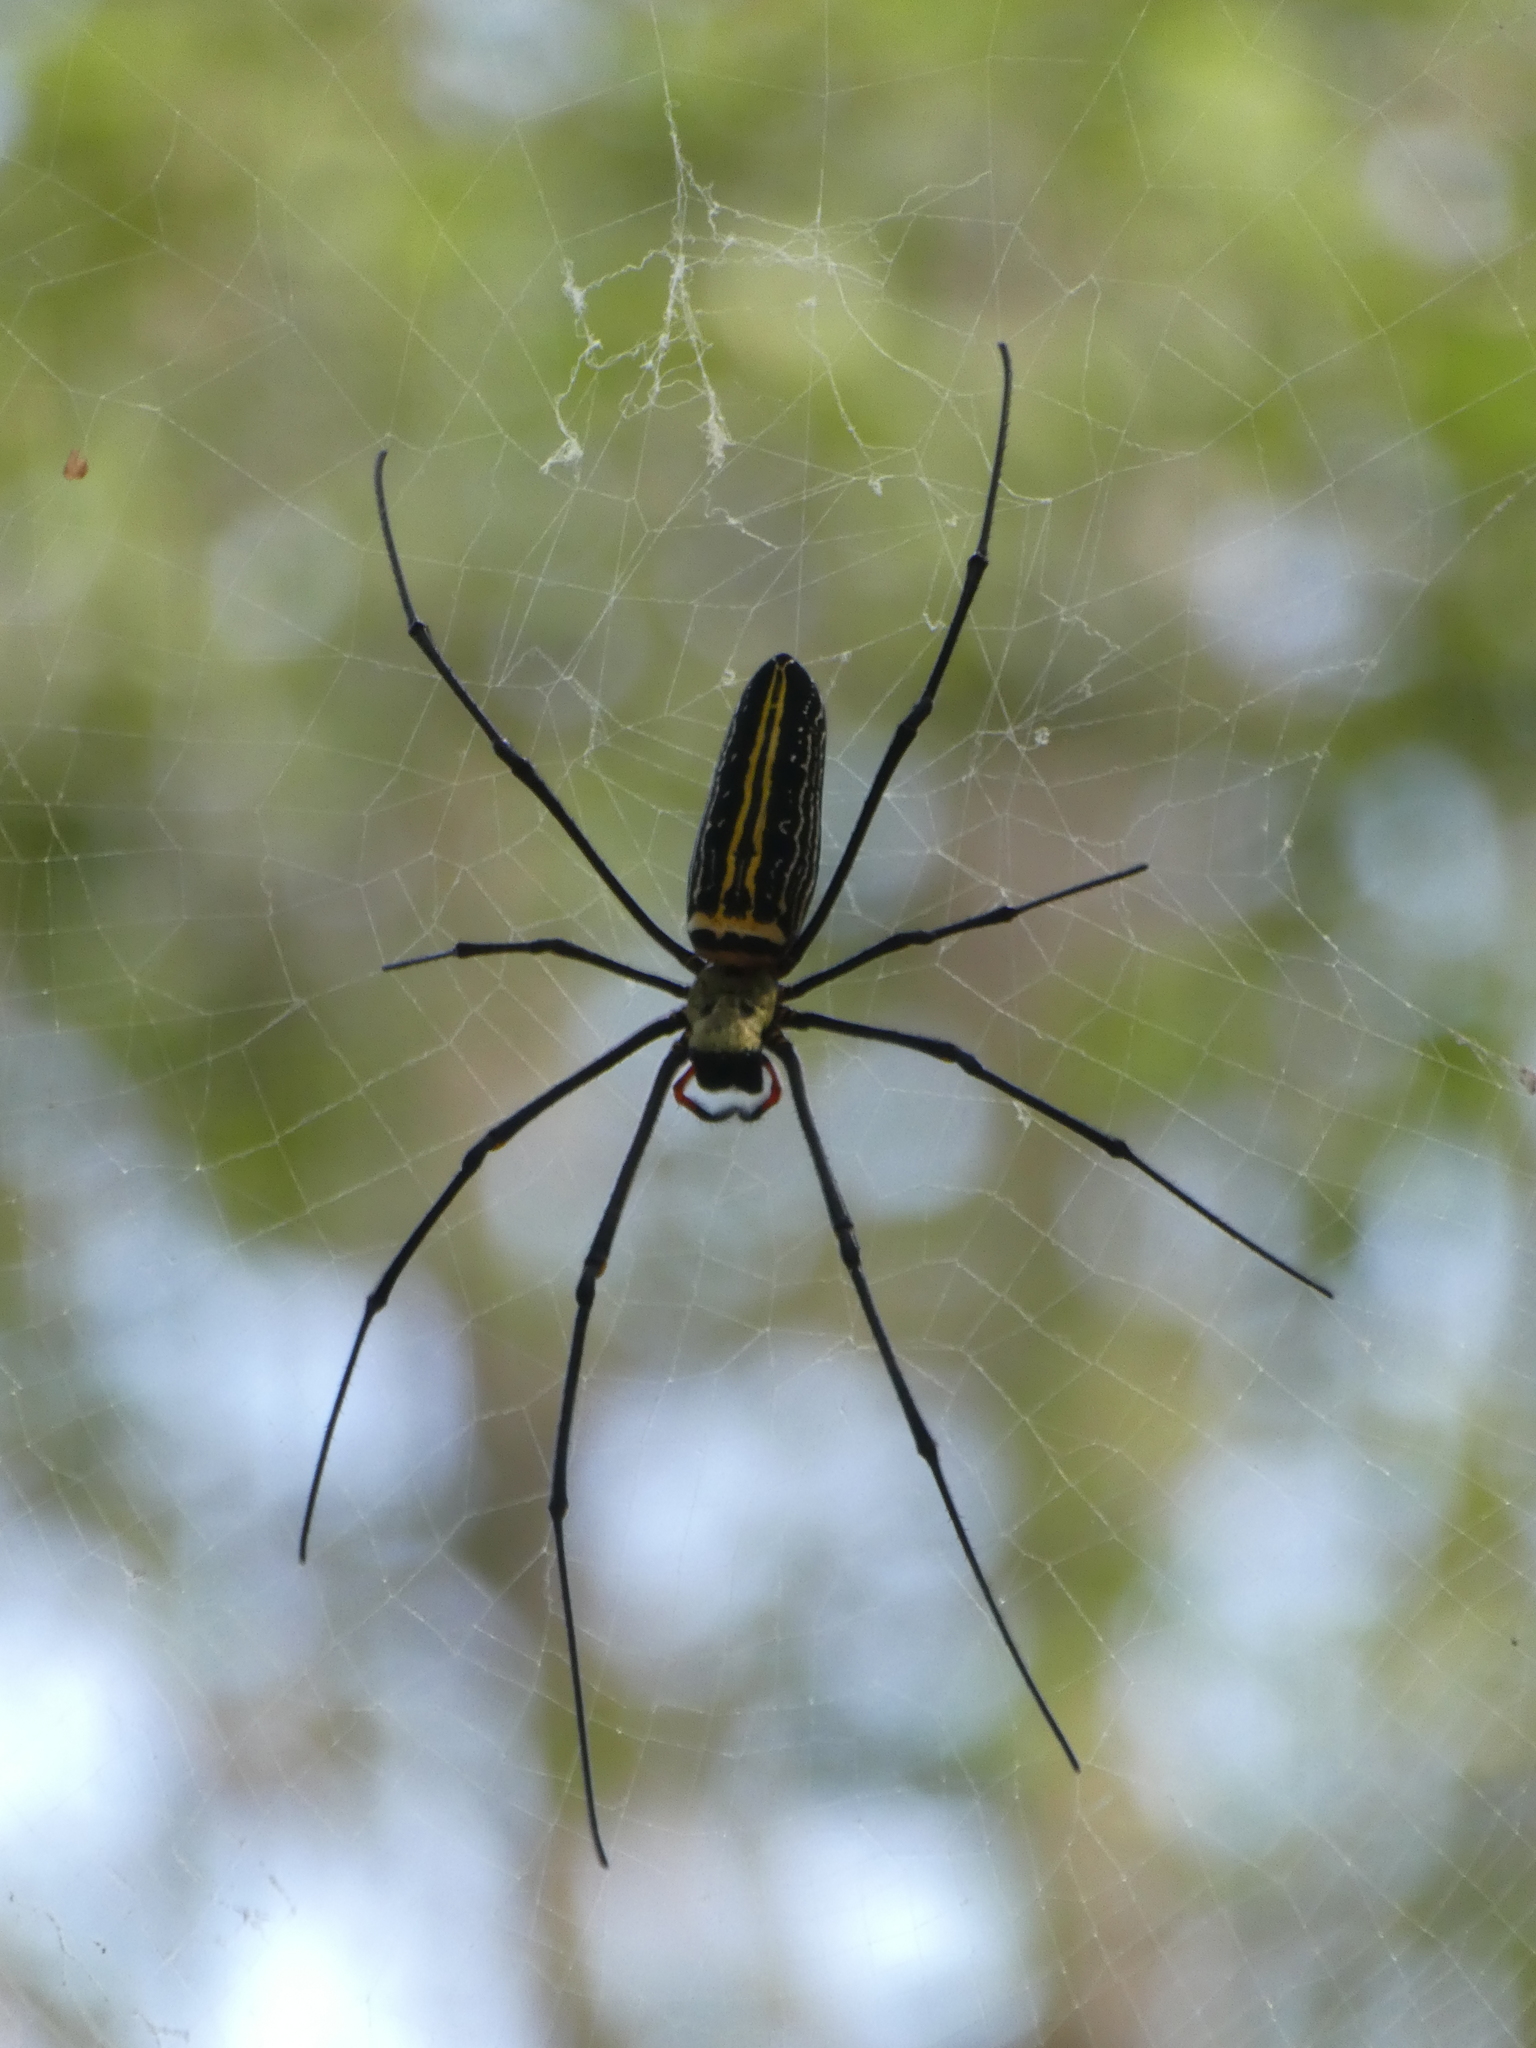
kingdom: Animalia
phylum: Arthropoda
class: Arachnida
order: Araneae
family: Araneidae
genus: Nephila
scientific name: Nephila pilipes
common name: Giant golden orb weaver
